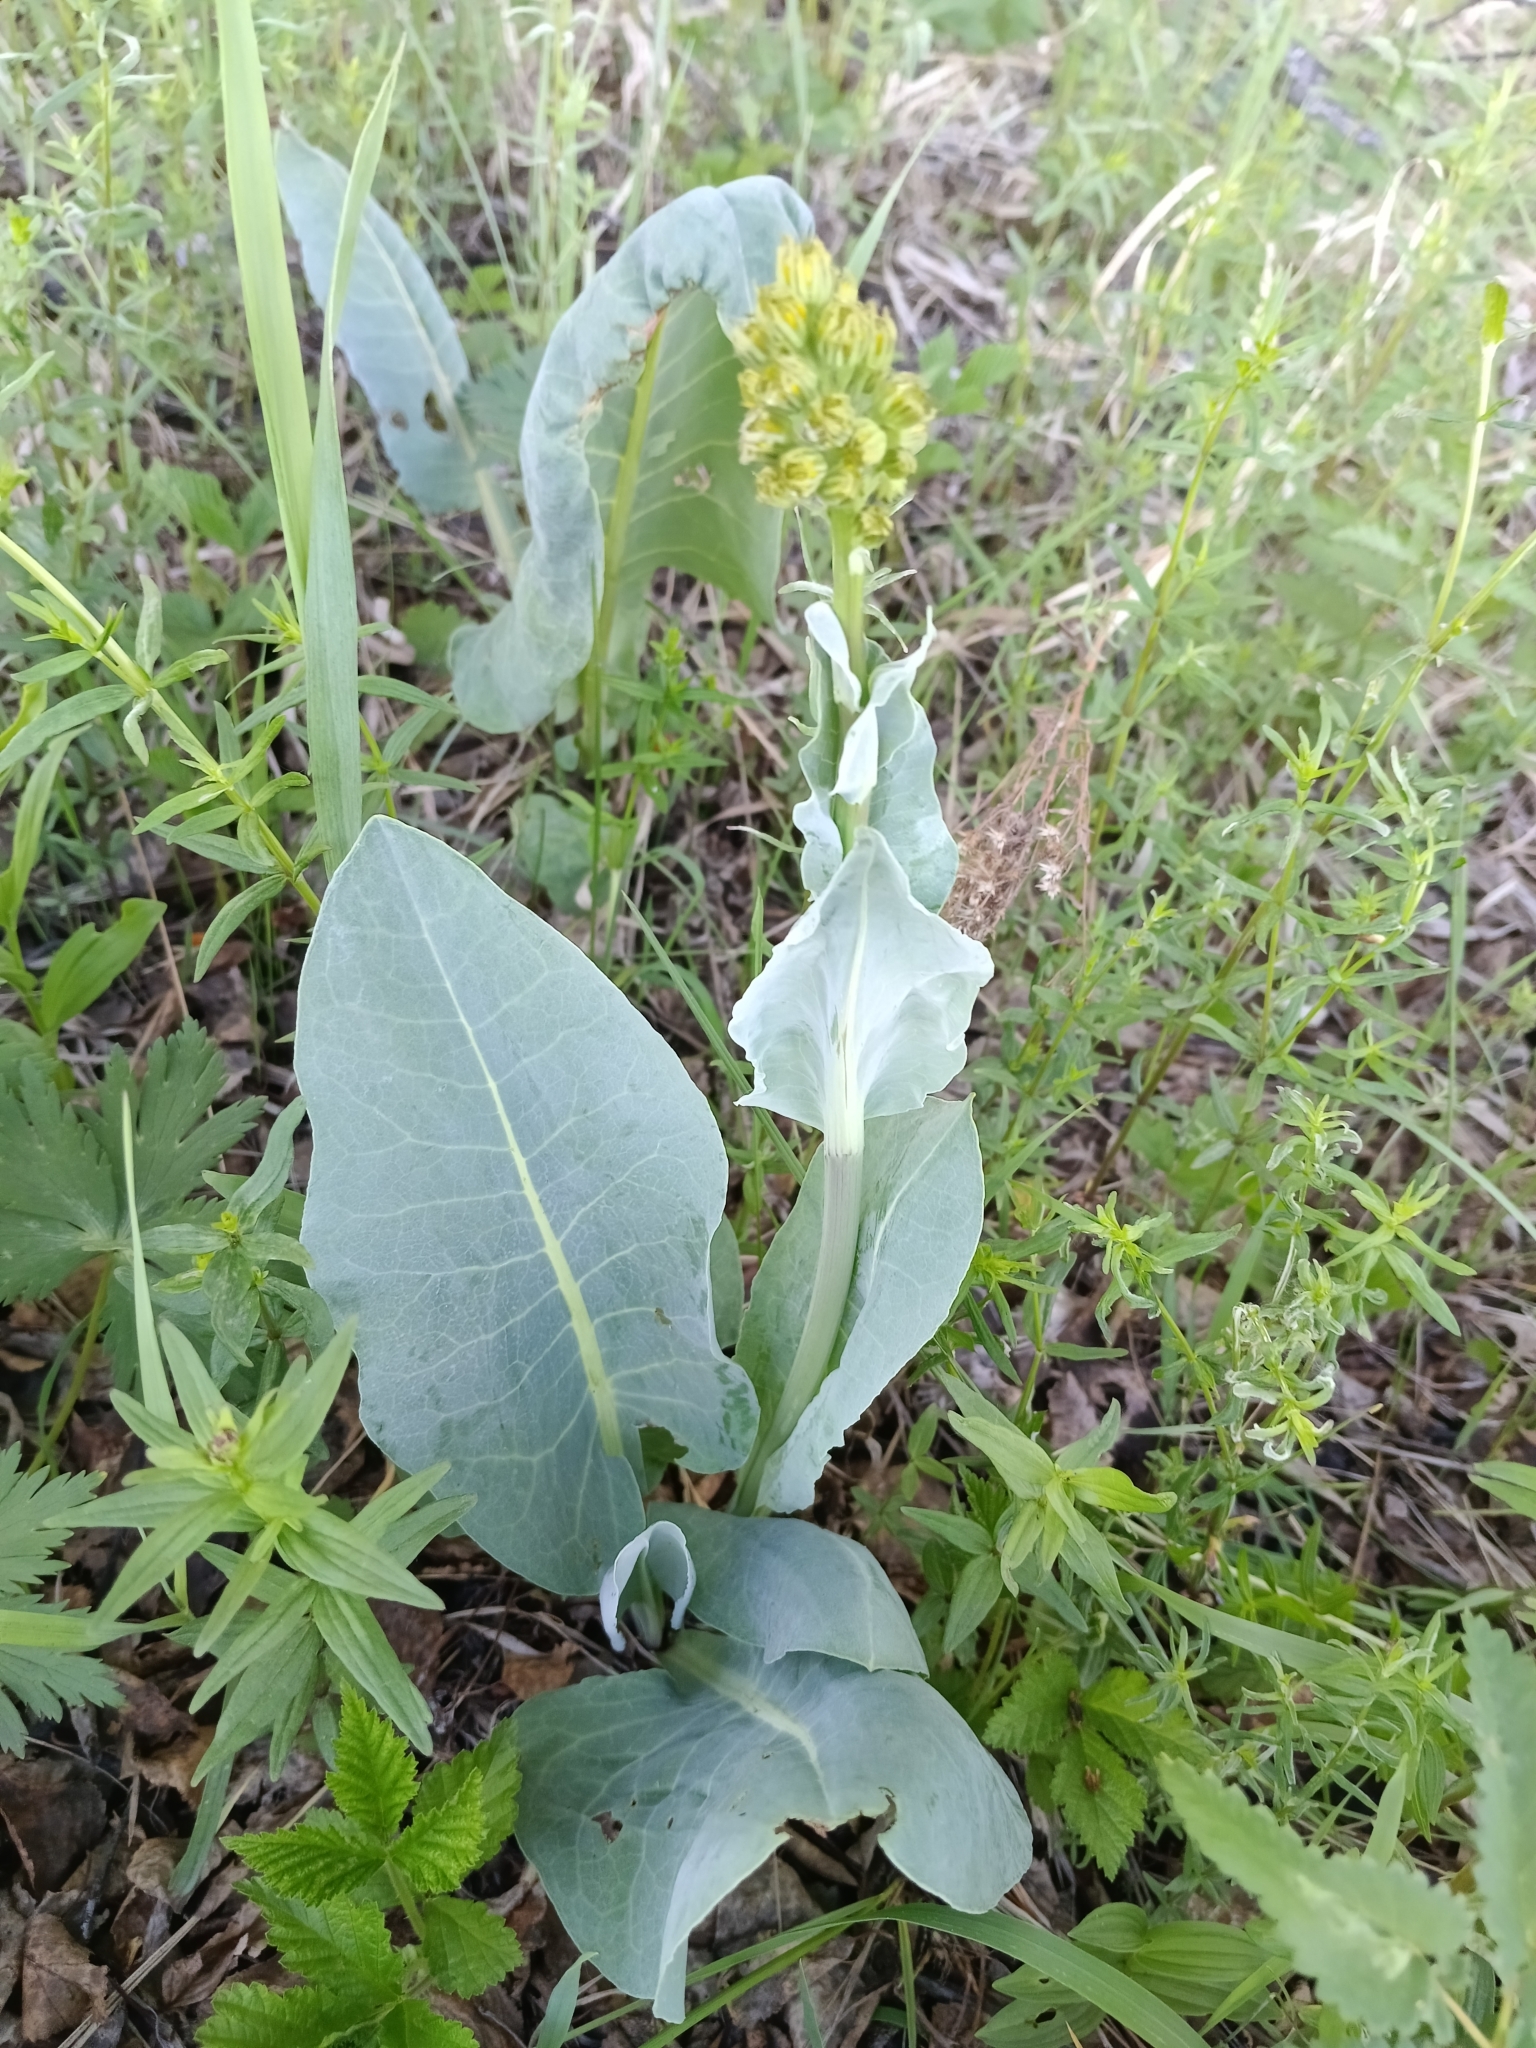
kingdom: Plantae
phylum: Tracheophyta
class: Magnoliopsida
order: Asterales
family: Asteraceae
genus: Ligularia
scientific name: Ligularia glauca
